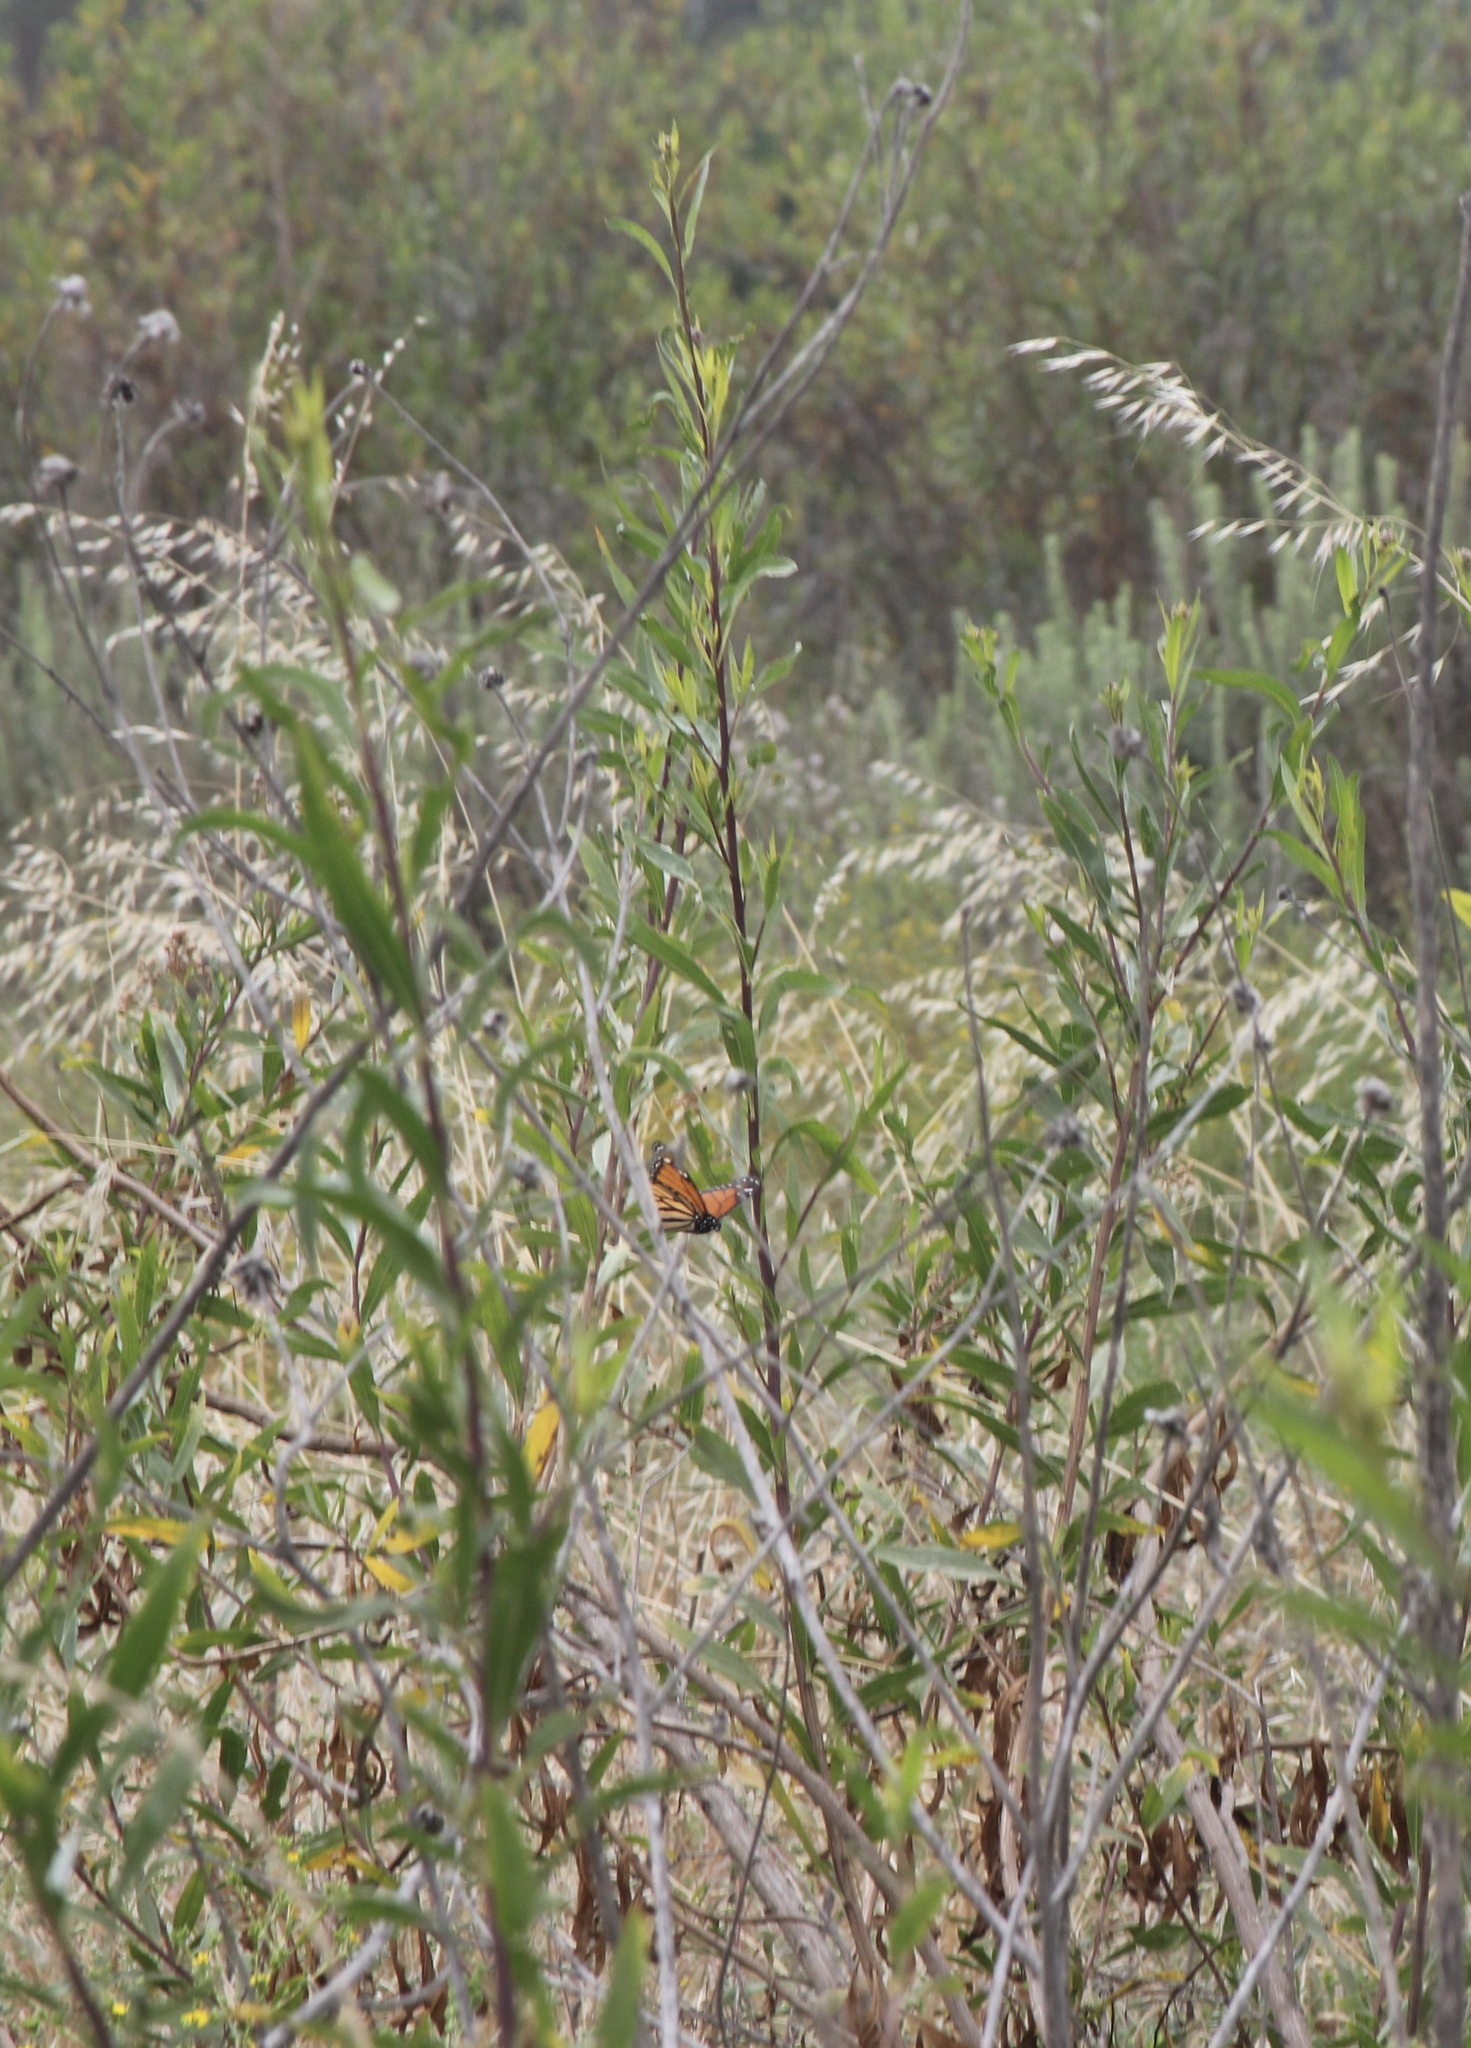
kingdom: Animalia
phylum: Arthropoda
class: Insecta
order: Lepidoptera
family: Nymphalidae
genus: Danaus
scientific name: Danaus plexippus
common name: Monarch
